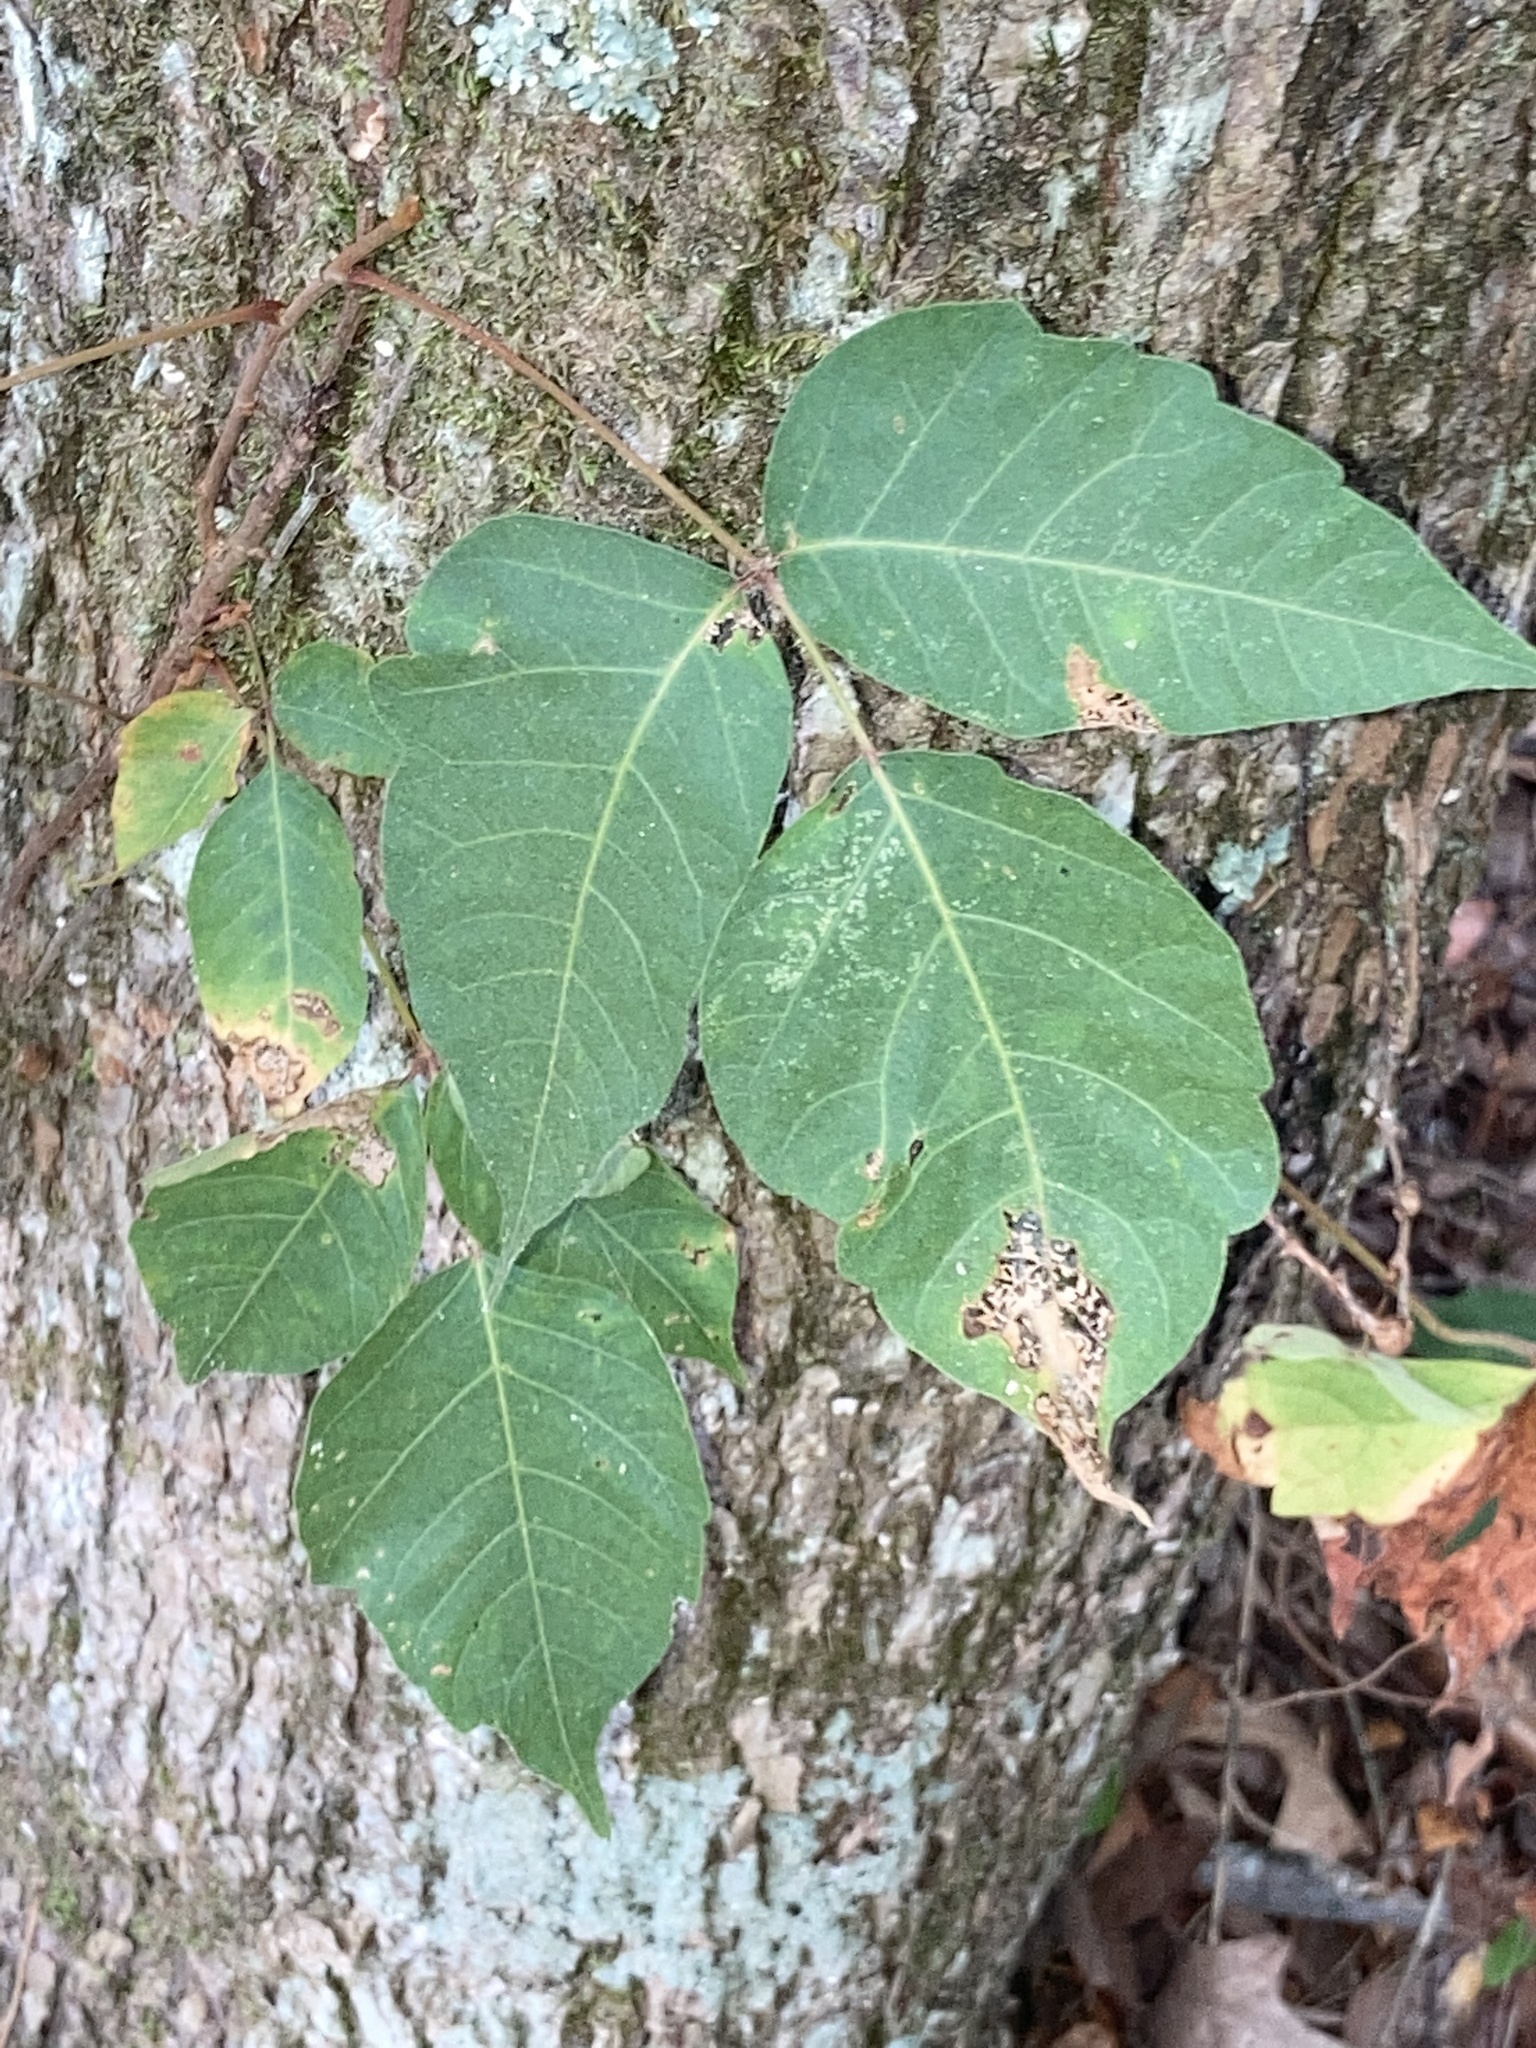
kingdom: Plantae
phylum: Tracheophyta
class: Magnoliopsida
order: Sapindales
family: Anacardiaceae
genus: Toxicodendron
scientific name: Toxicodendron radicans
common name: Poison ivy
